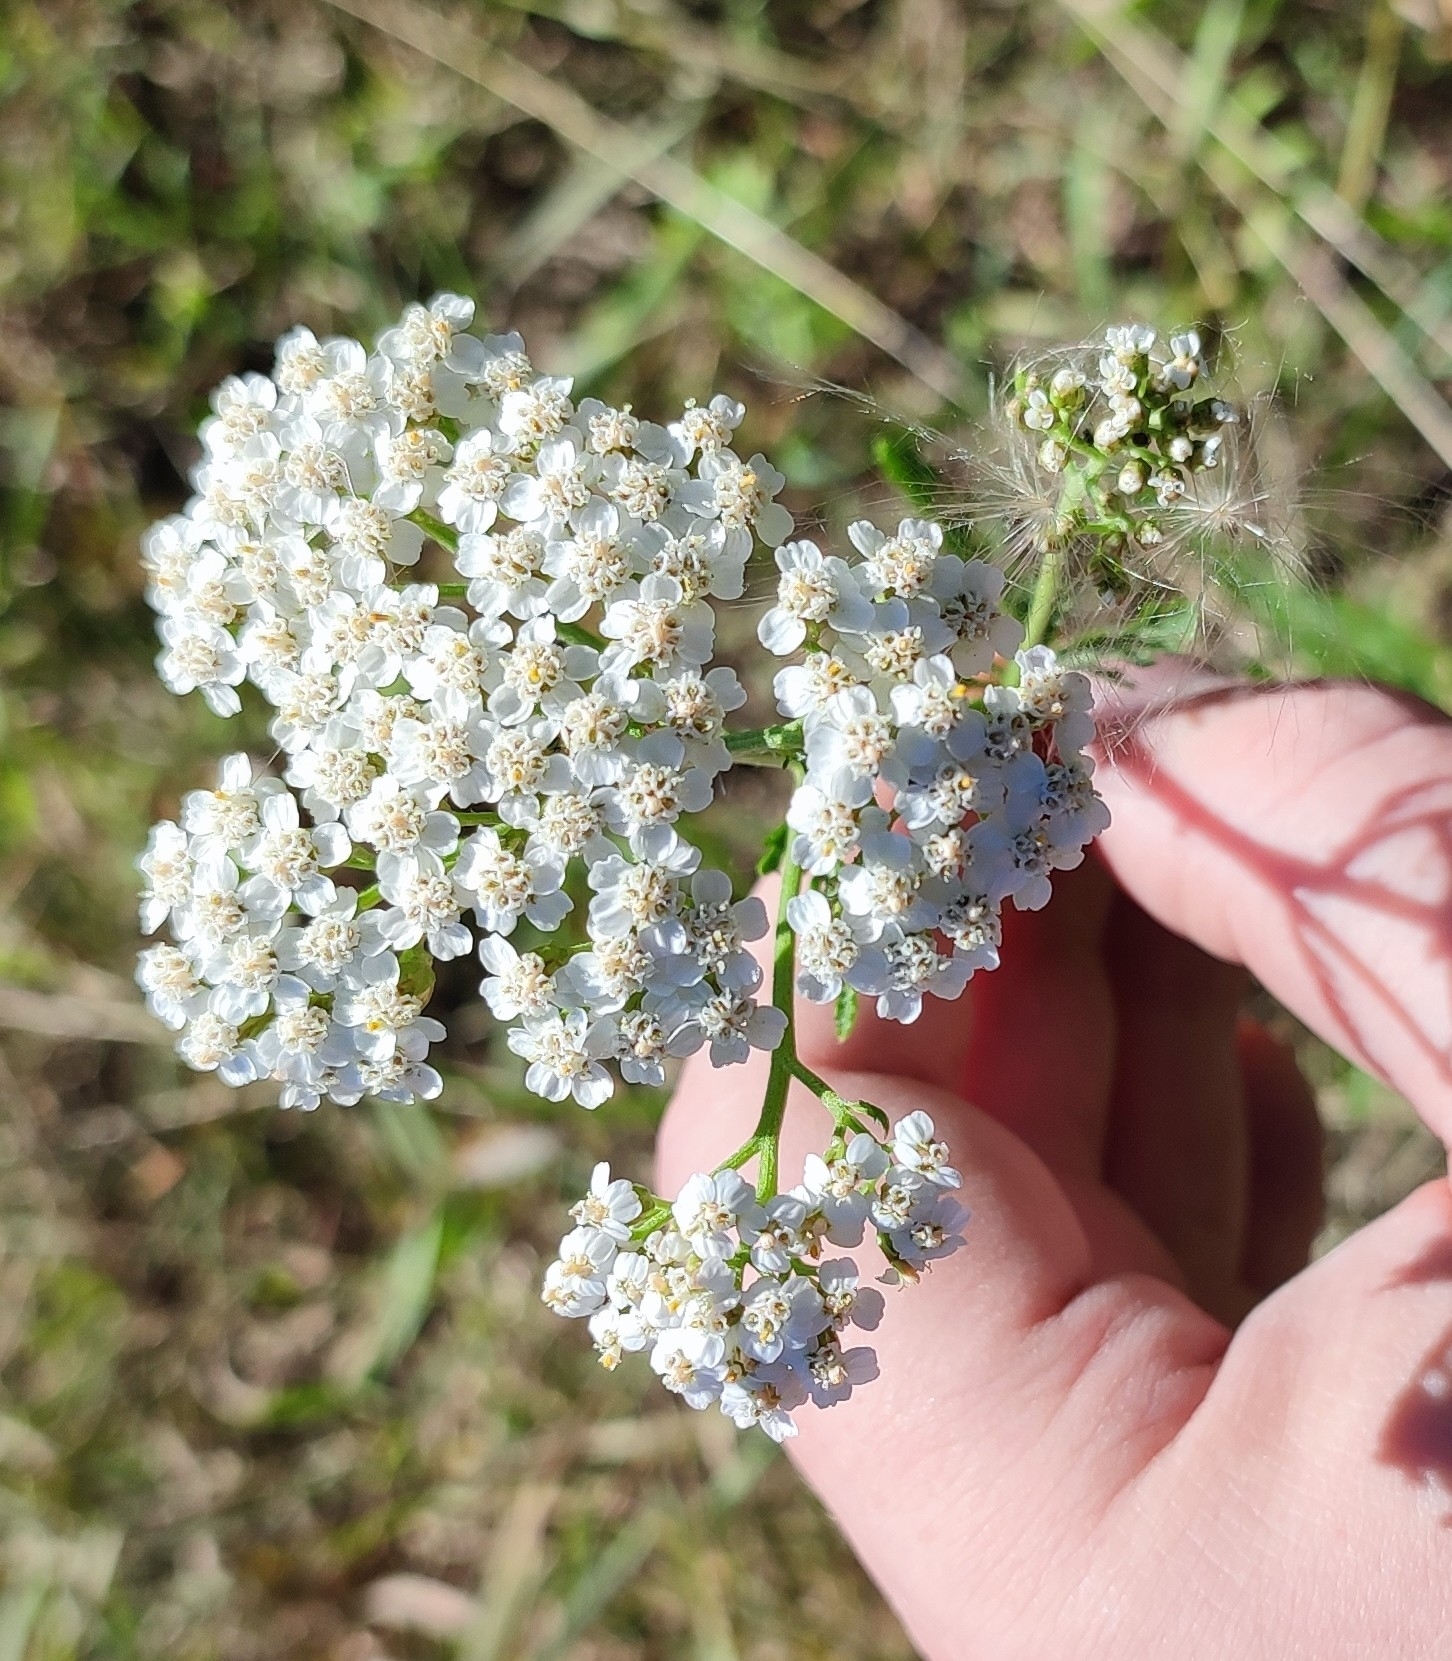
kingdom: Plantae
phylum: Tracheophyta
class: Magnoliopsida
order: Asterales
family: Asteraceae
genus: Achillea
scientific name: Achillea millefolium
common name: Yarrow
